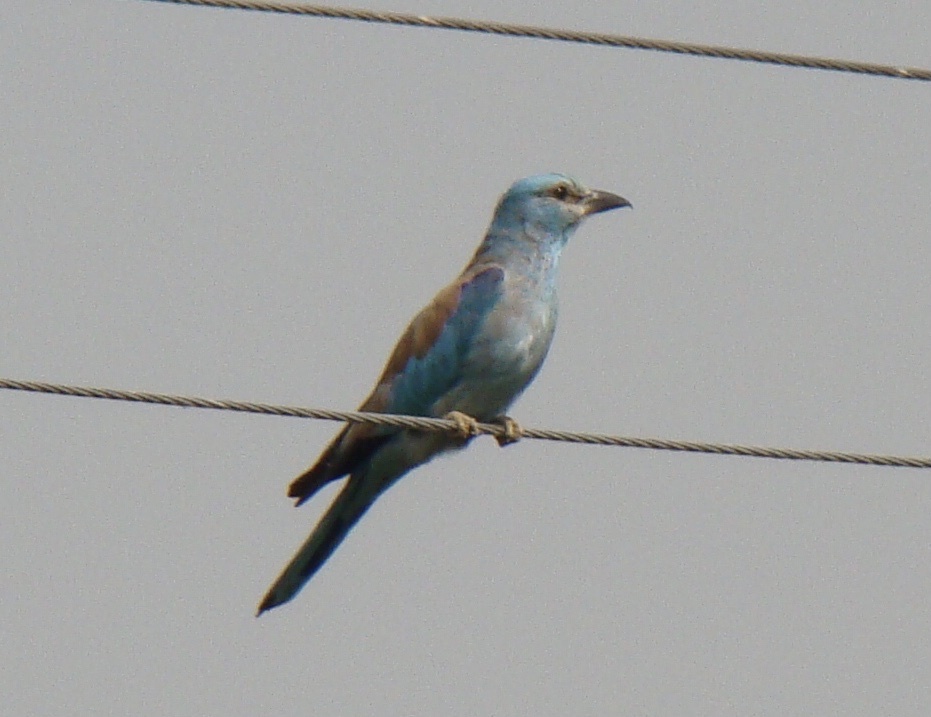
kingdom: Animalia
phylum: Chordata
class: Aves
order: Coraciiformes
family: Coraciidae
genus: Coracias
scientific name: Coracias garrulus
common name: European roller
